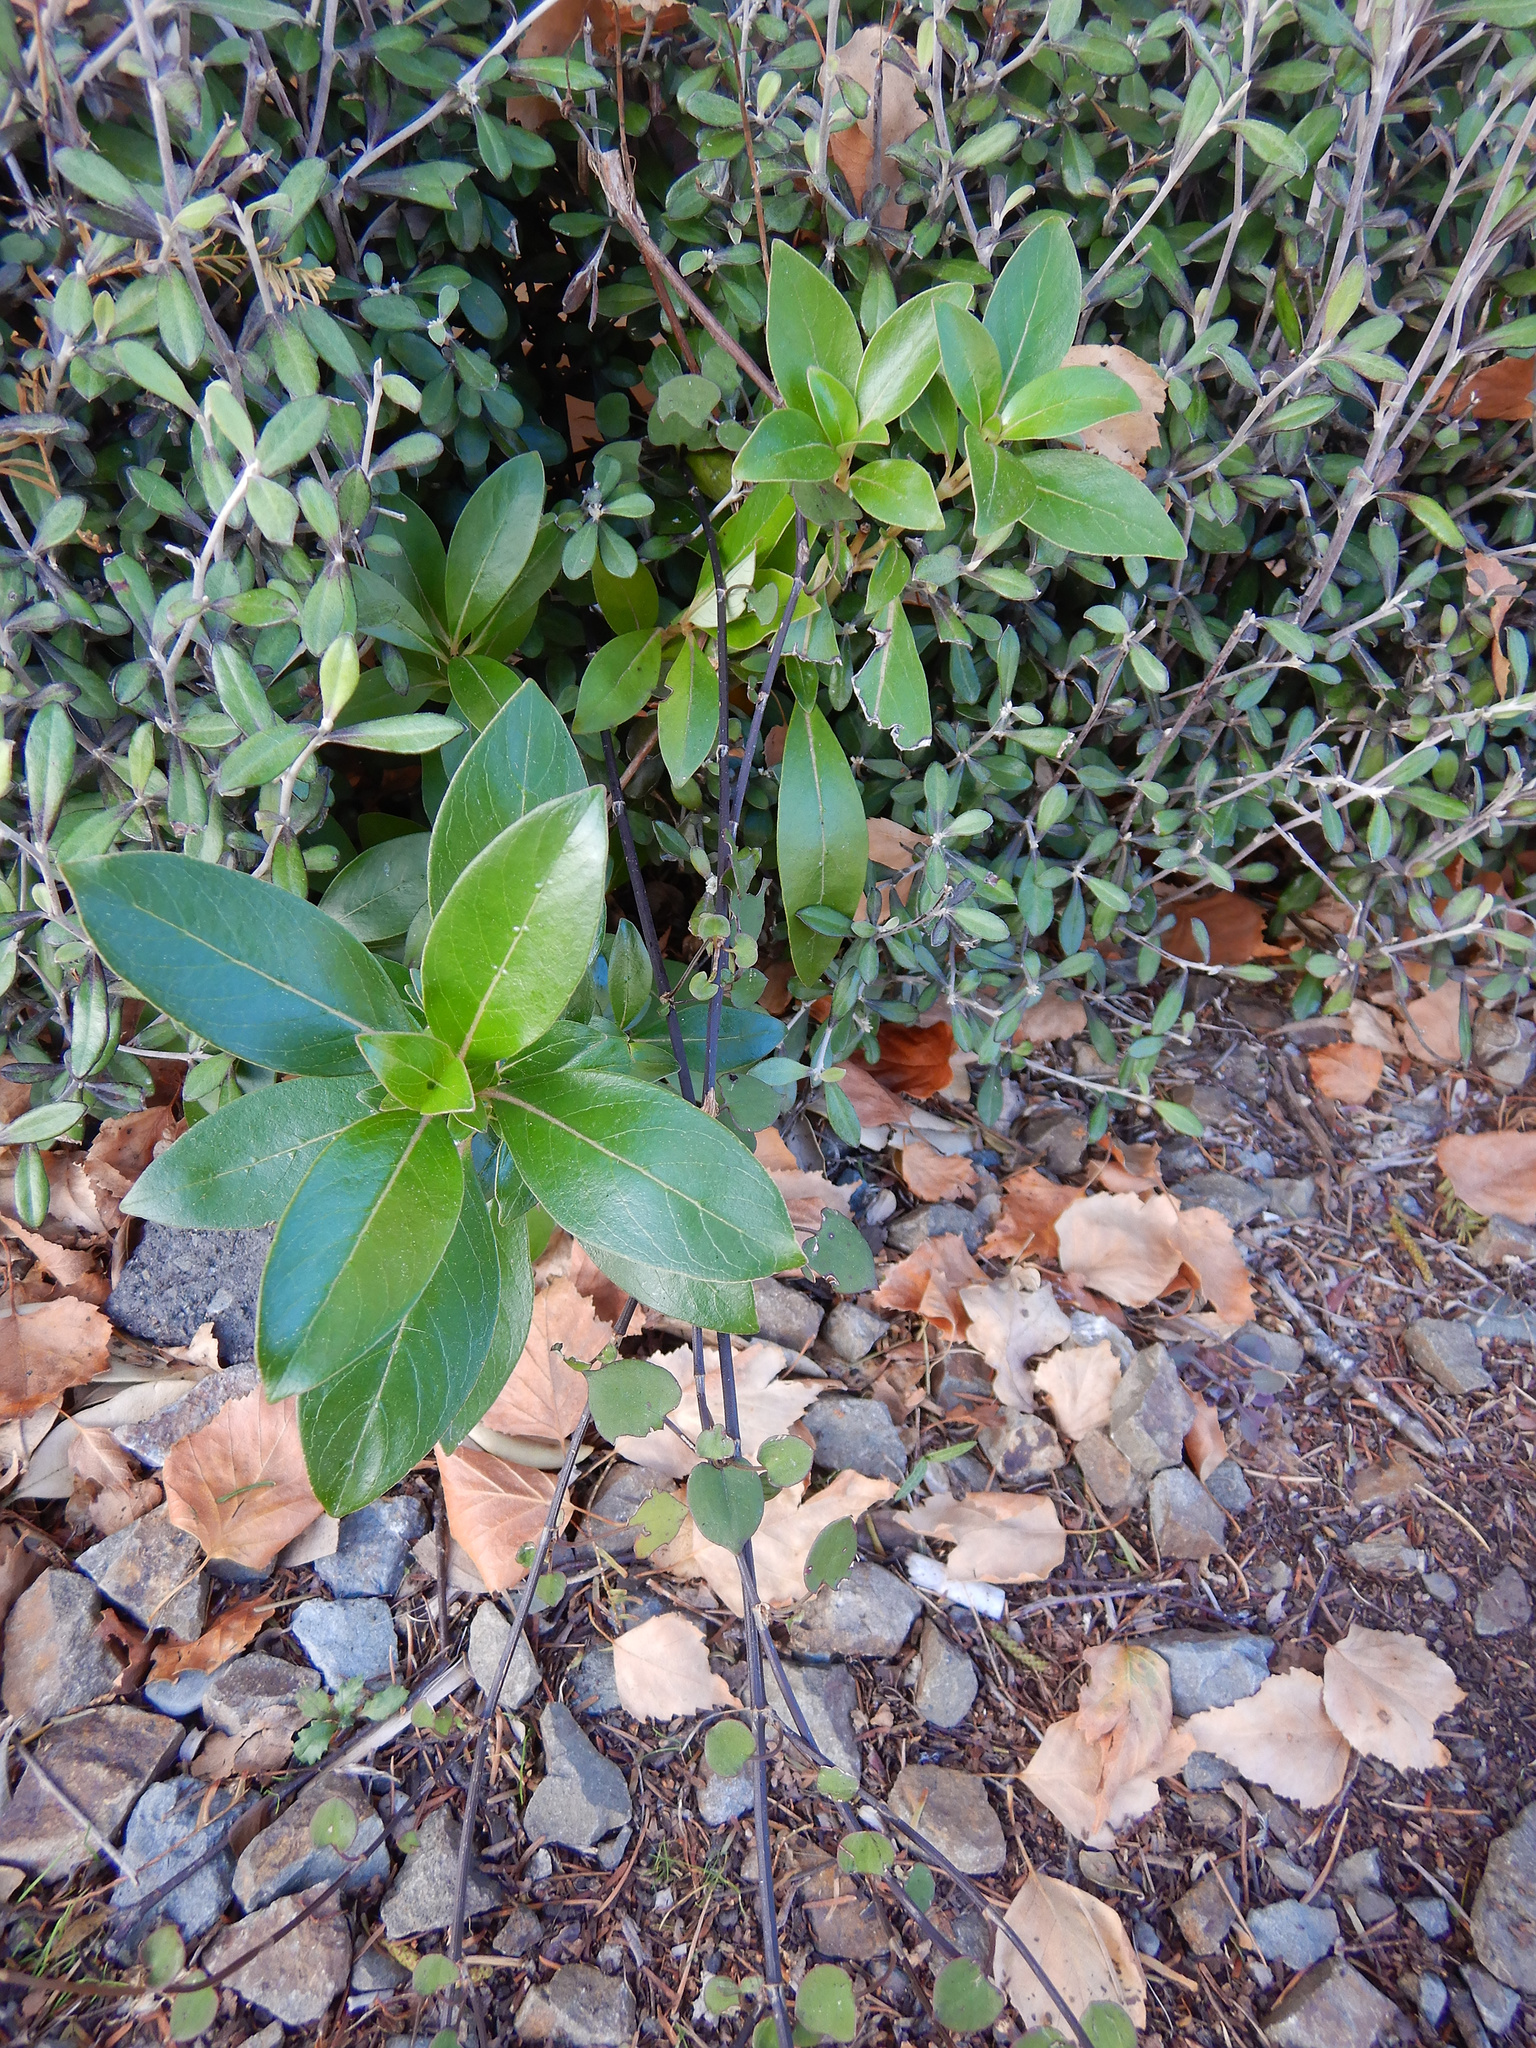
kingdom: Plantae
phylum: Tracheophyta
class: Magnoliopsida
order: Gentianales
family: Rubiaceae
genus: Coprosma
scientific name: Coprosma robusta
